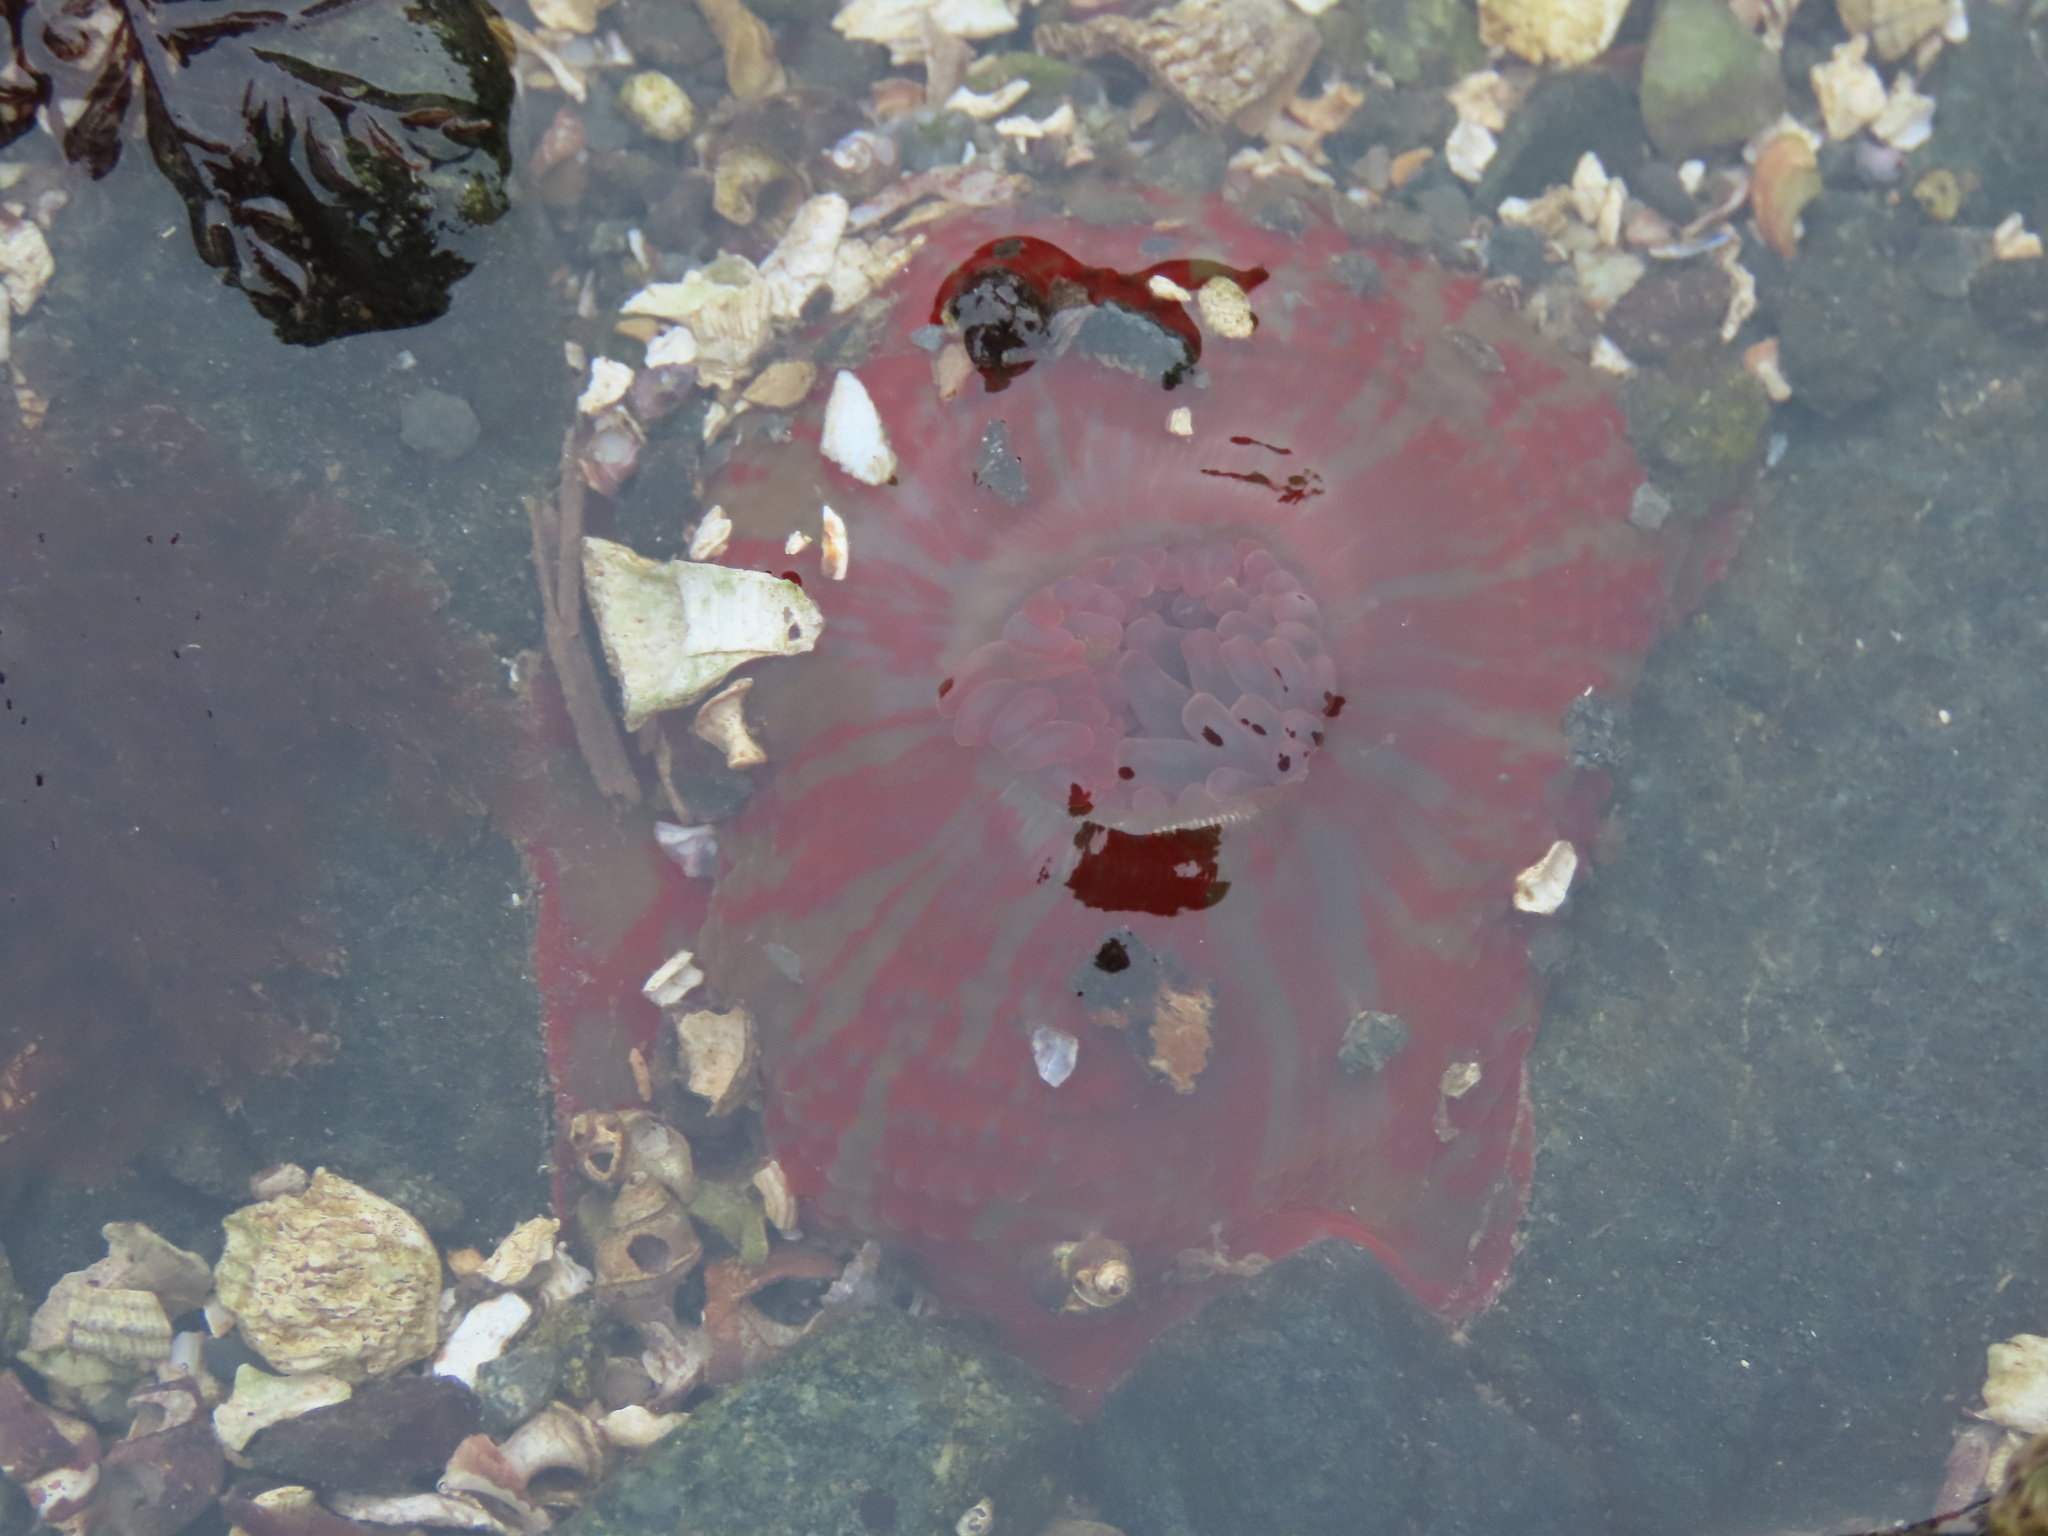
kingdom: Animalia
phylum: Cnidaria
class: Anthozoa
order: Actiniaria
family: Actiniidae
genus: Urticina
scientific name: Urticina grebelnyi
